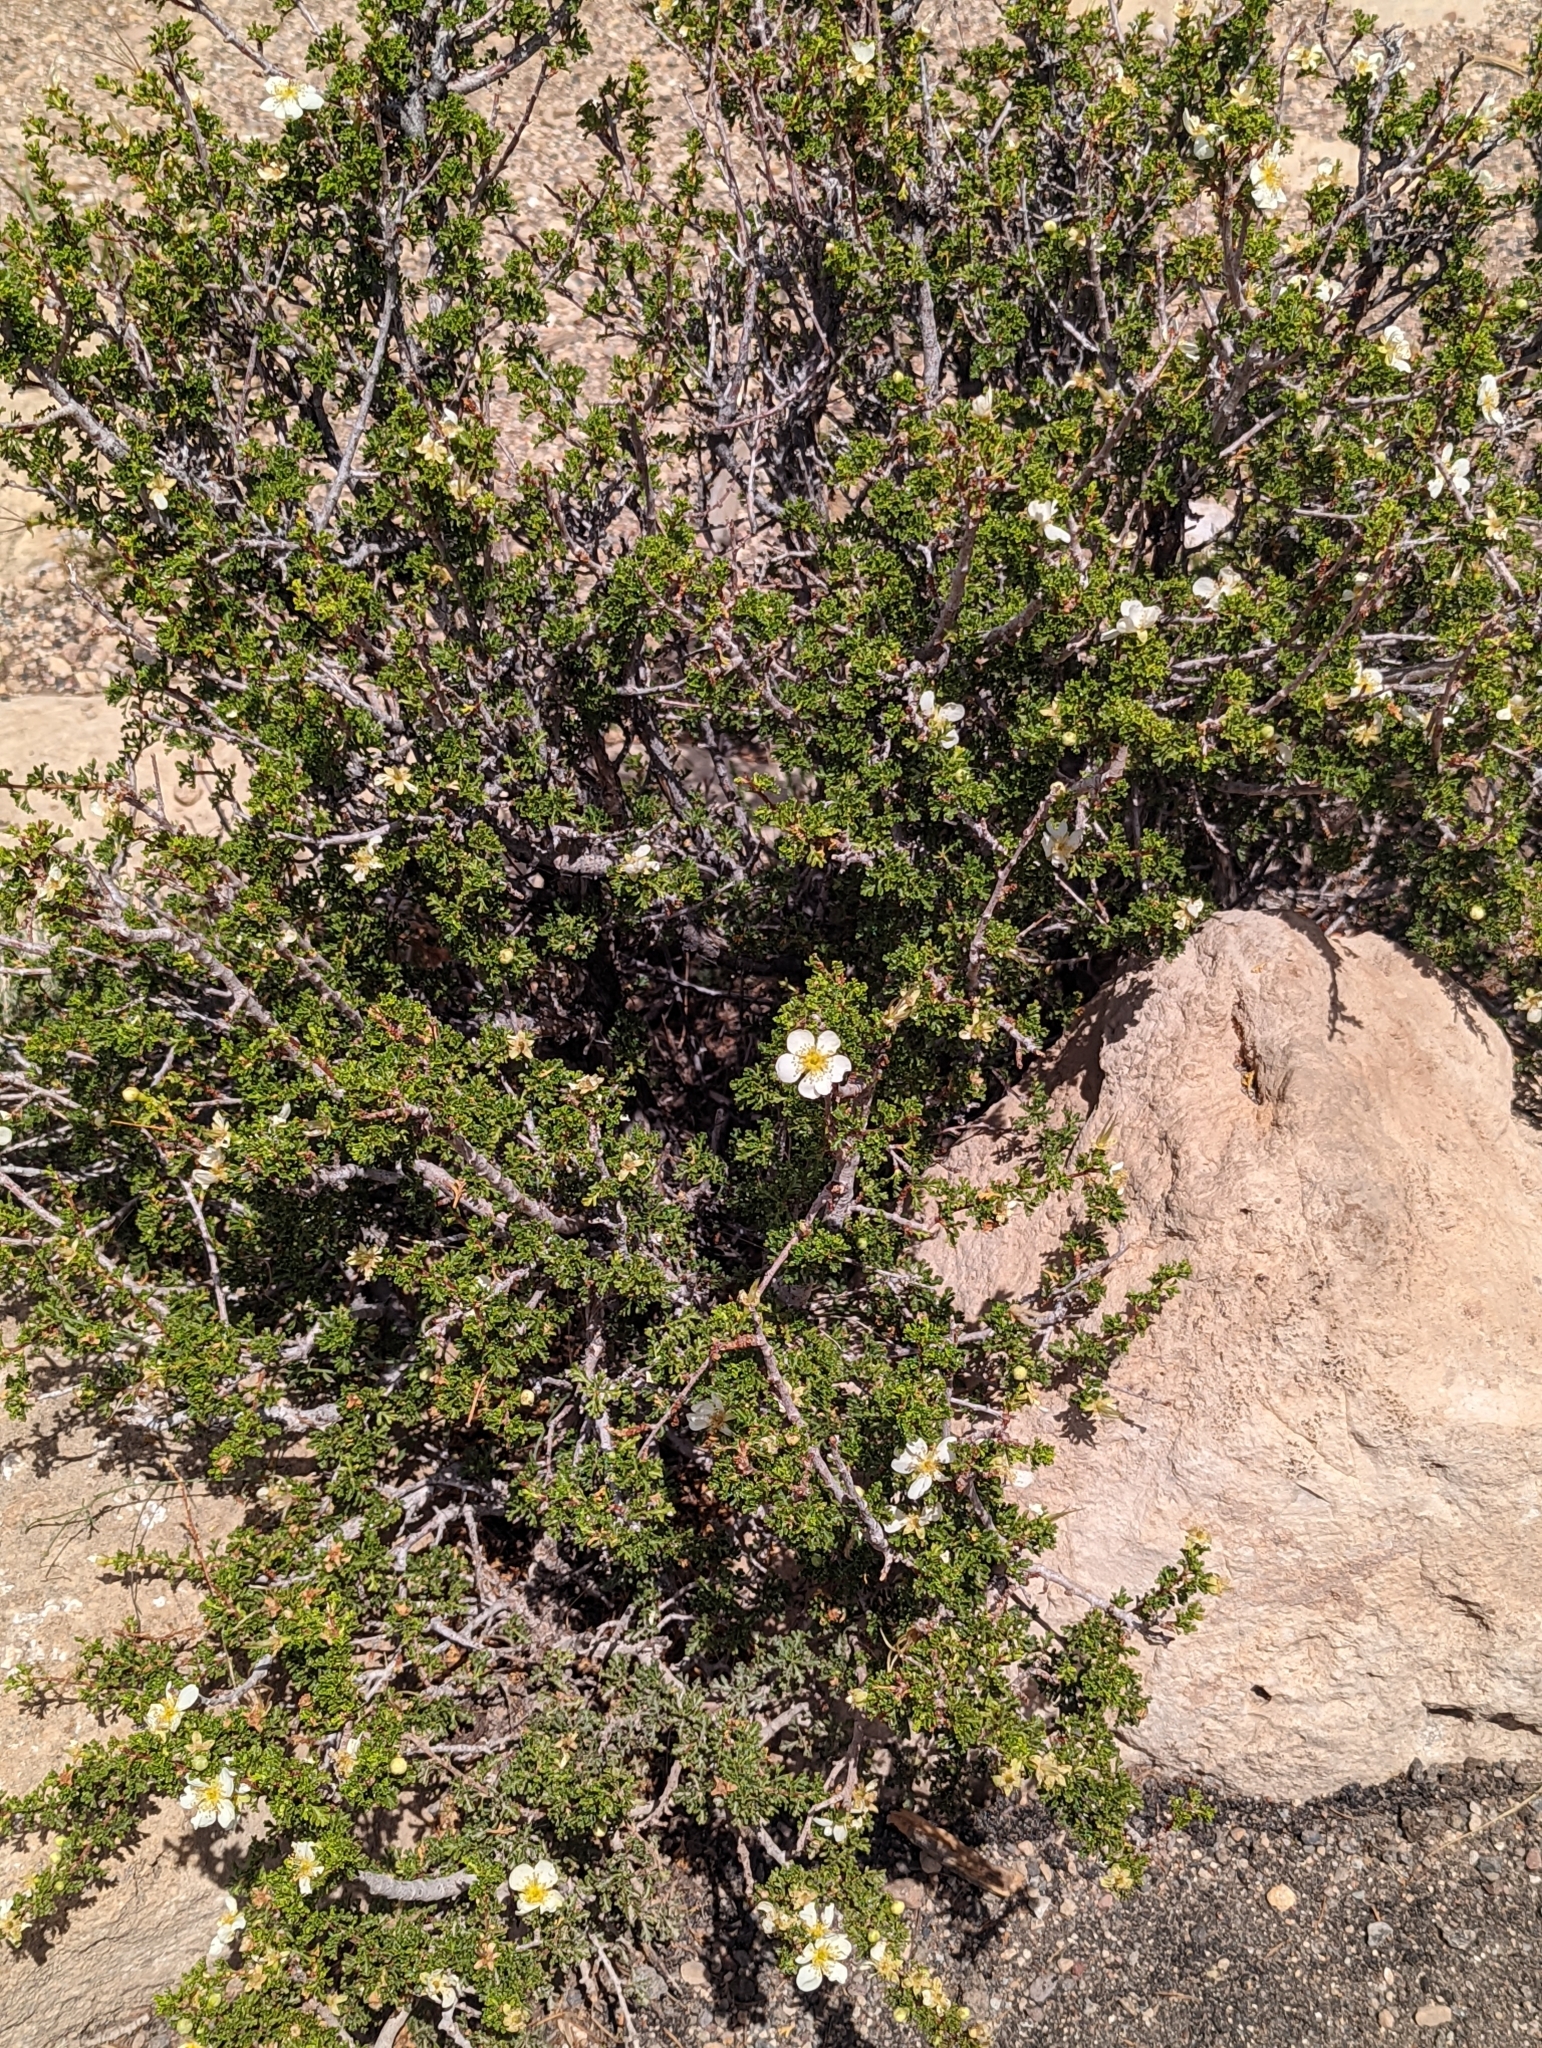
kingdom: Plantae
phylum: Tracheophyta
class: Magnoliopsida
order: Rosales
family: Rosaceae
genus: Purshia
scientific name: Purshia stansburiana
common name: Stansbury's cliffrose
